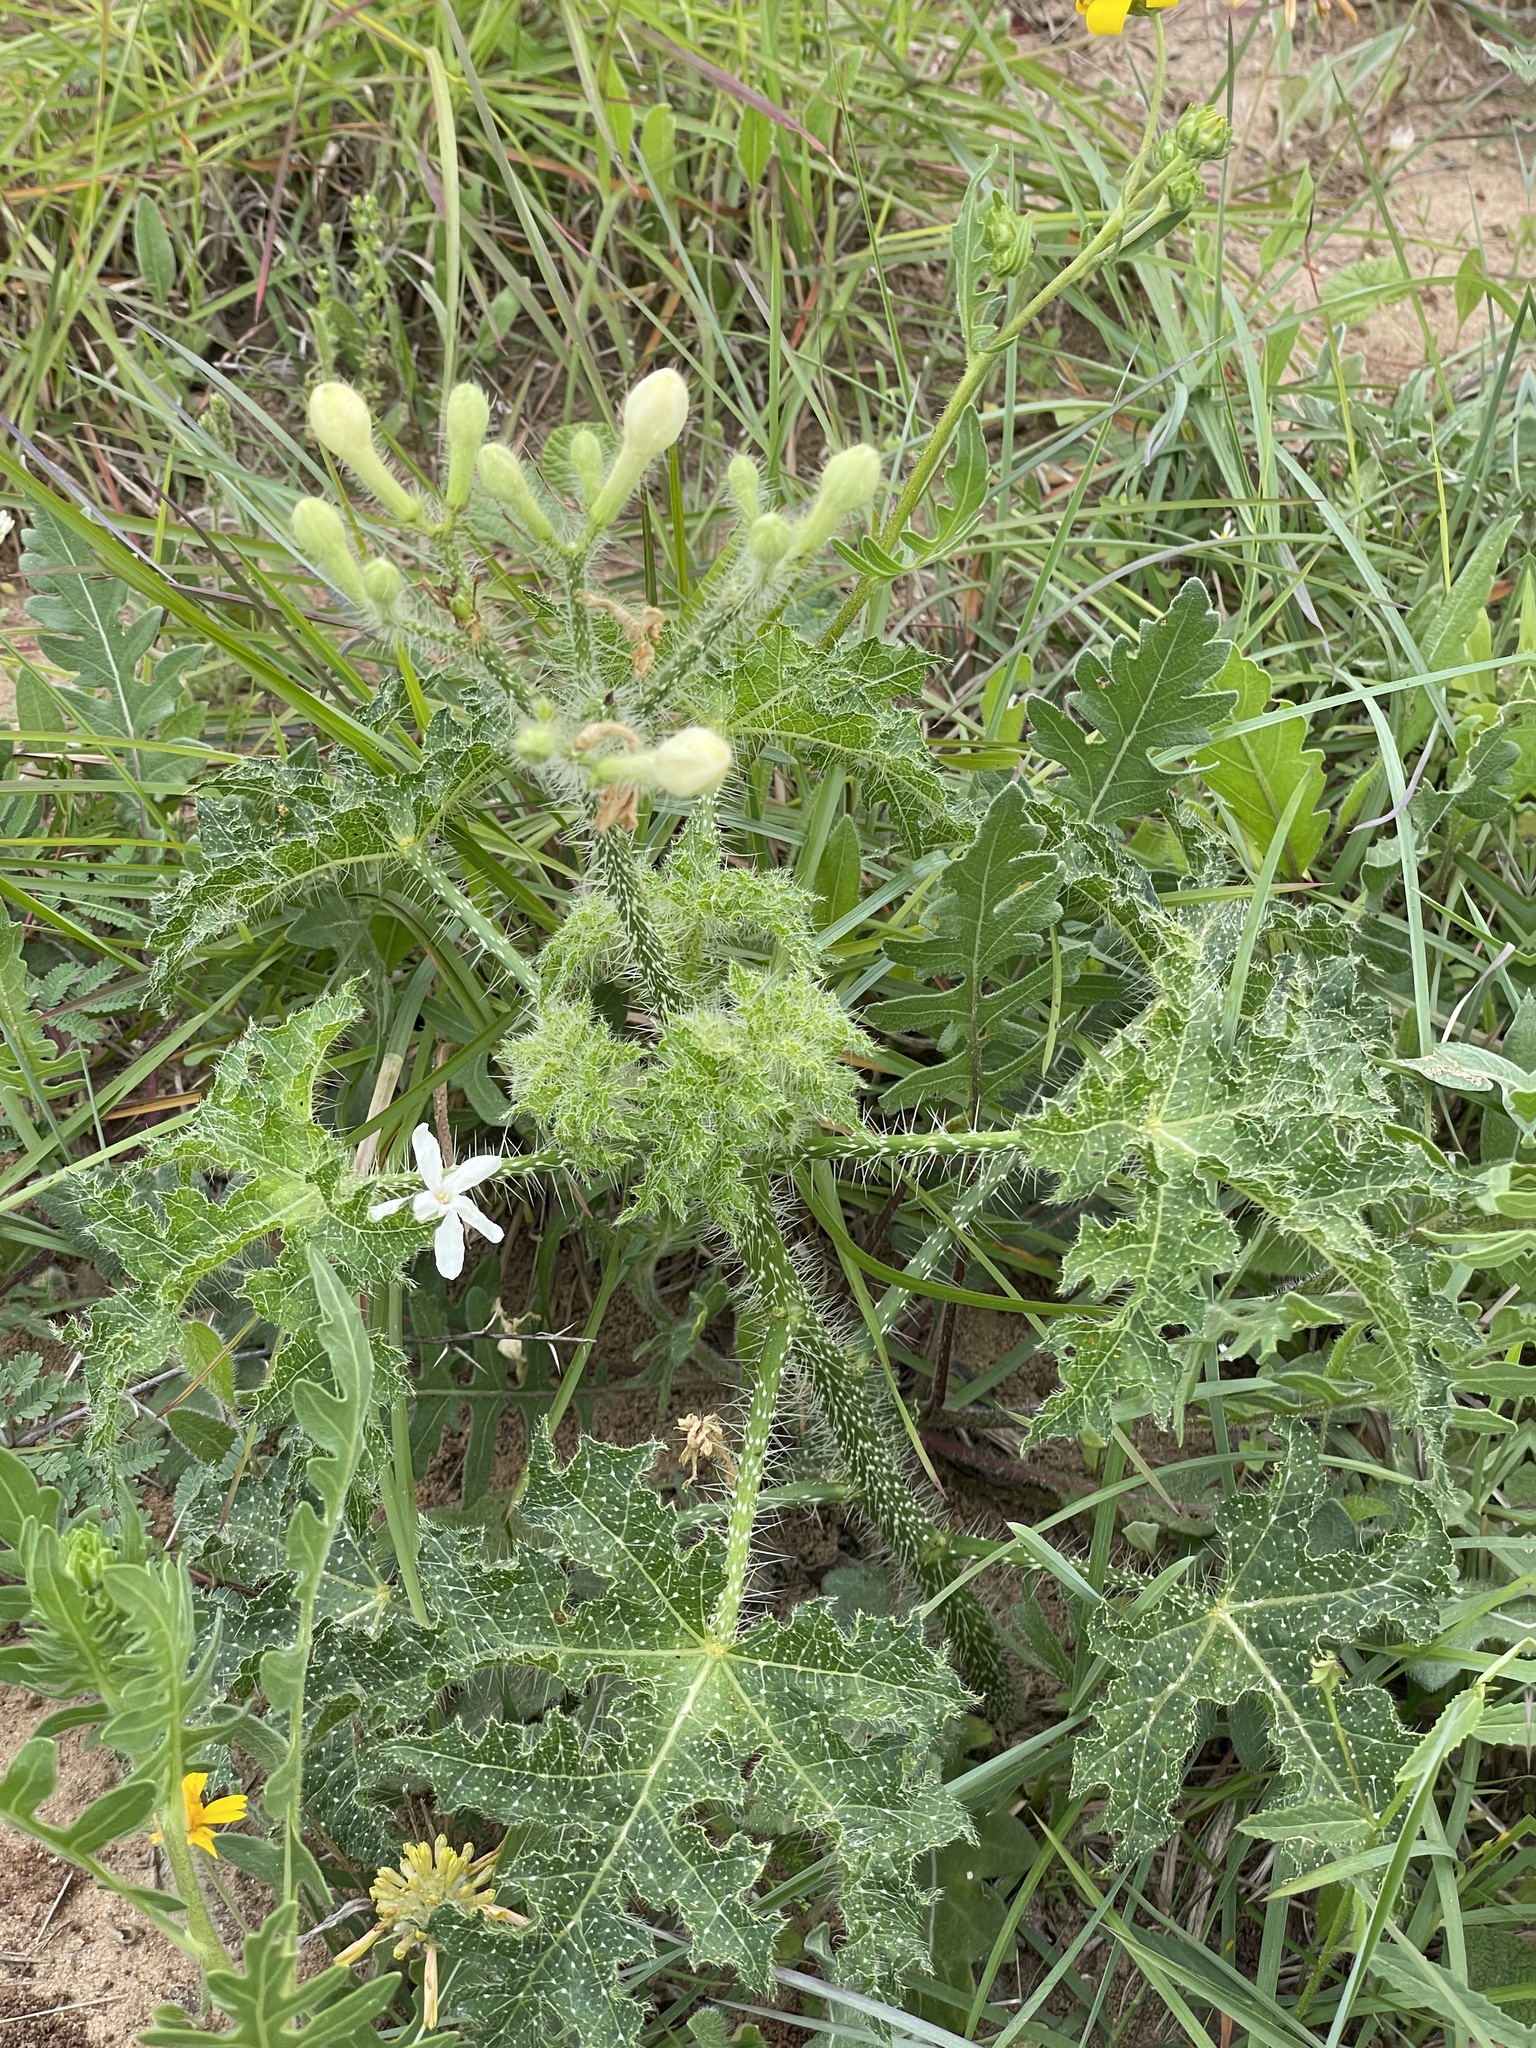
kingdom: Plantae
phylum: Tracheophyta
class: Magnoliopsida
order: Malpighiales
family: Euphorbiaceae
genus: Cnidoscolus
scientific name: Cnidoscolus texanus
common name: Texas bull-nettle
